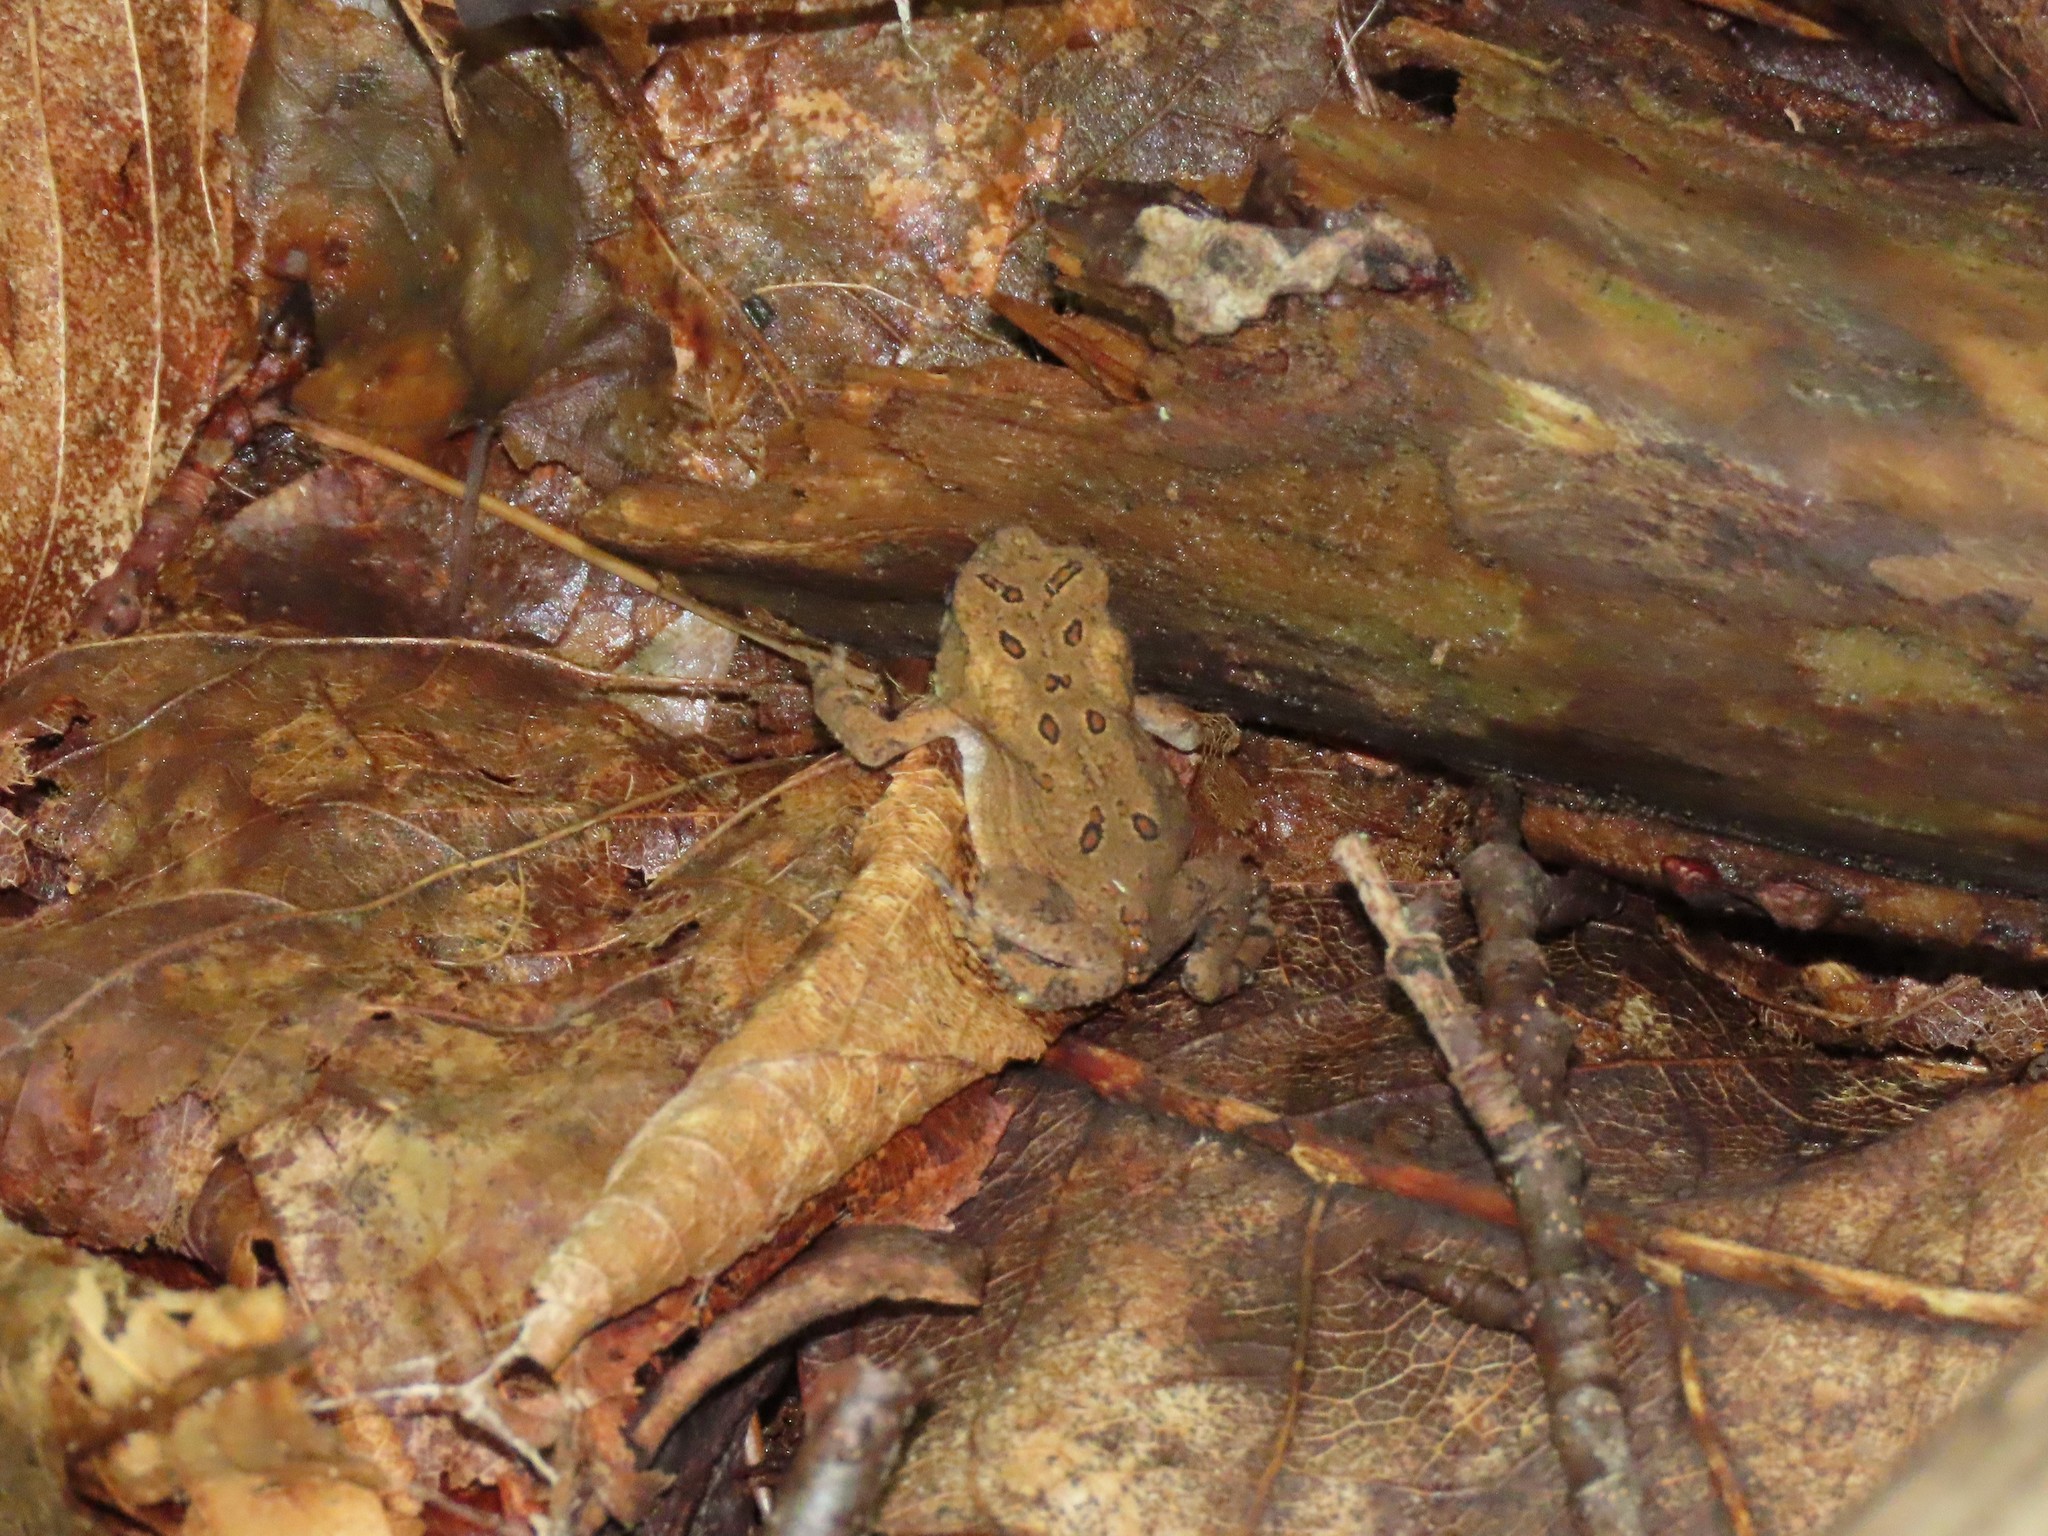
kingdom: Animalia
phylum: Chordata
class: Amphibia
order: Anura
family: Bufonidae
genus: Anaxyrus
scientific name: Anaxyrus americanus
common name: American toad
